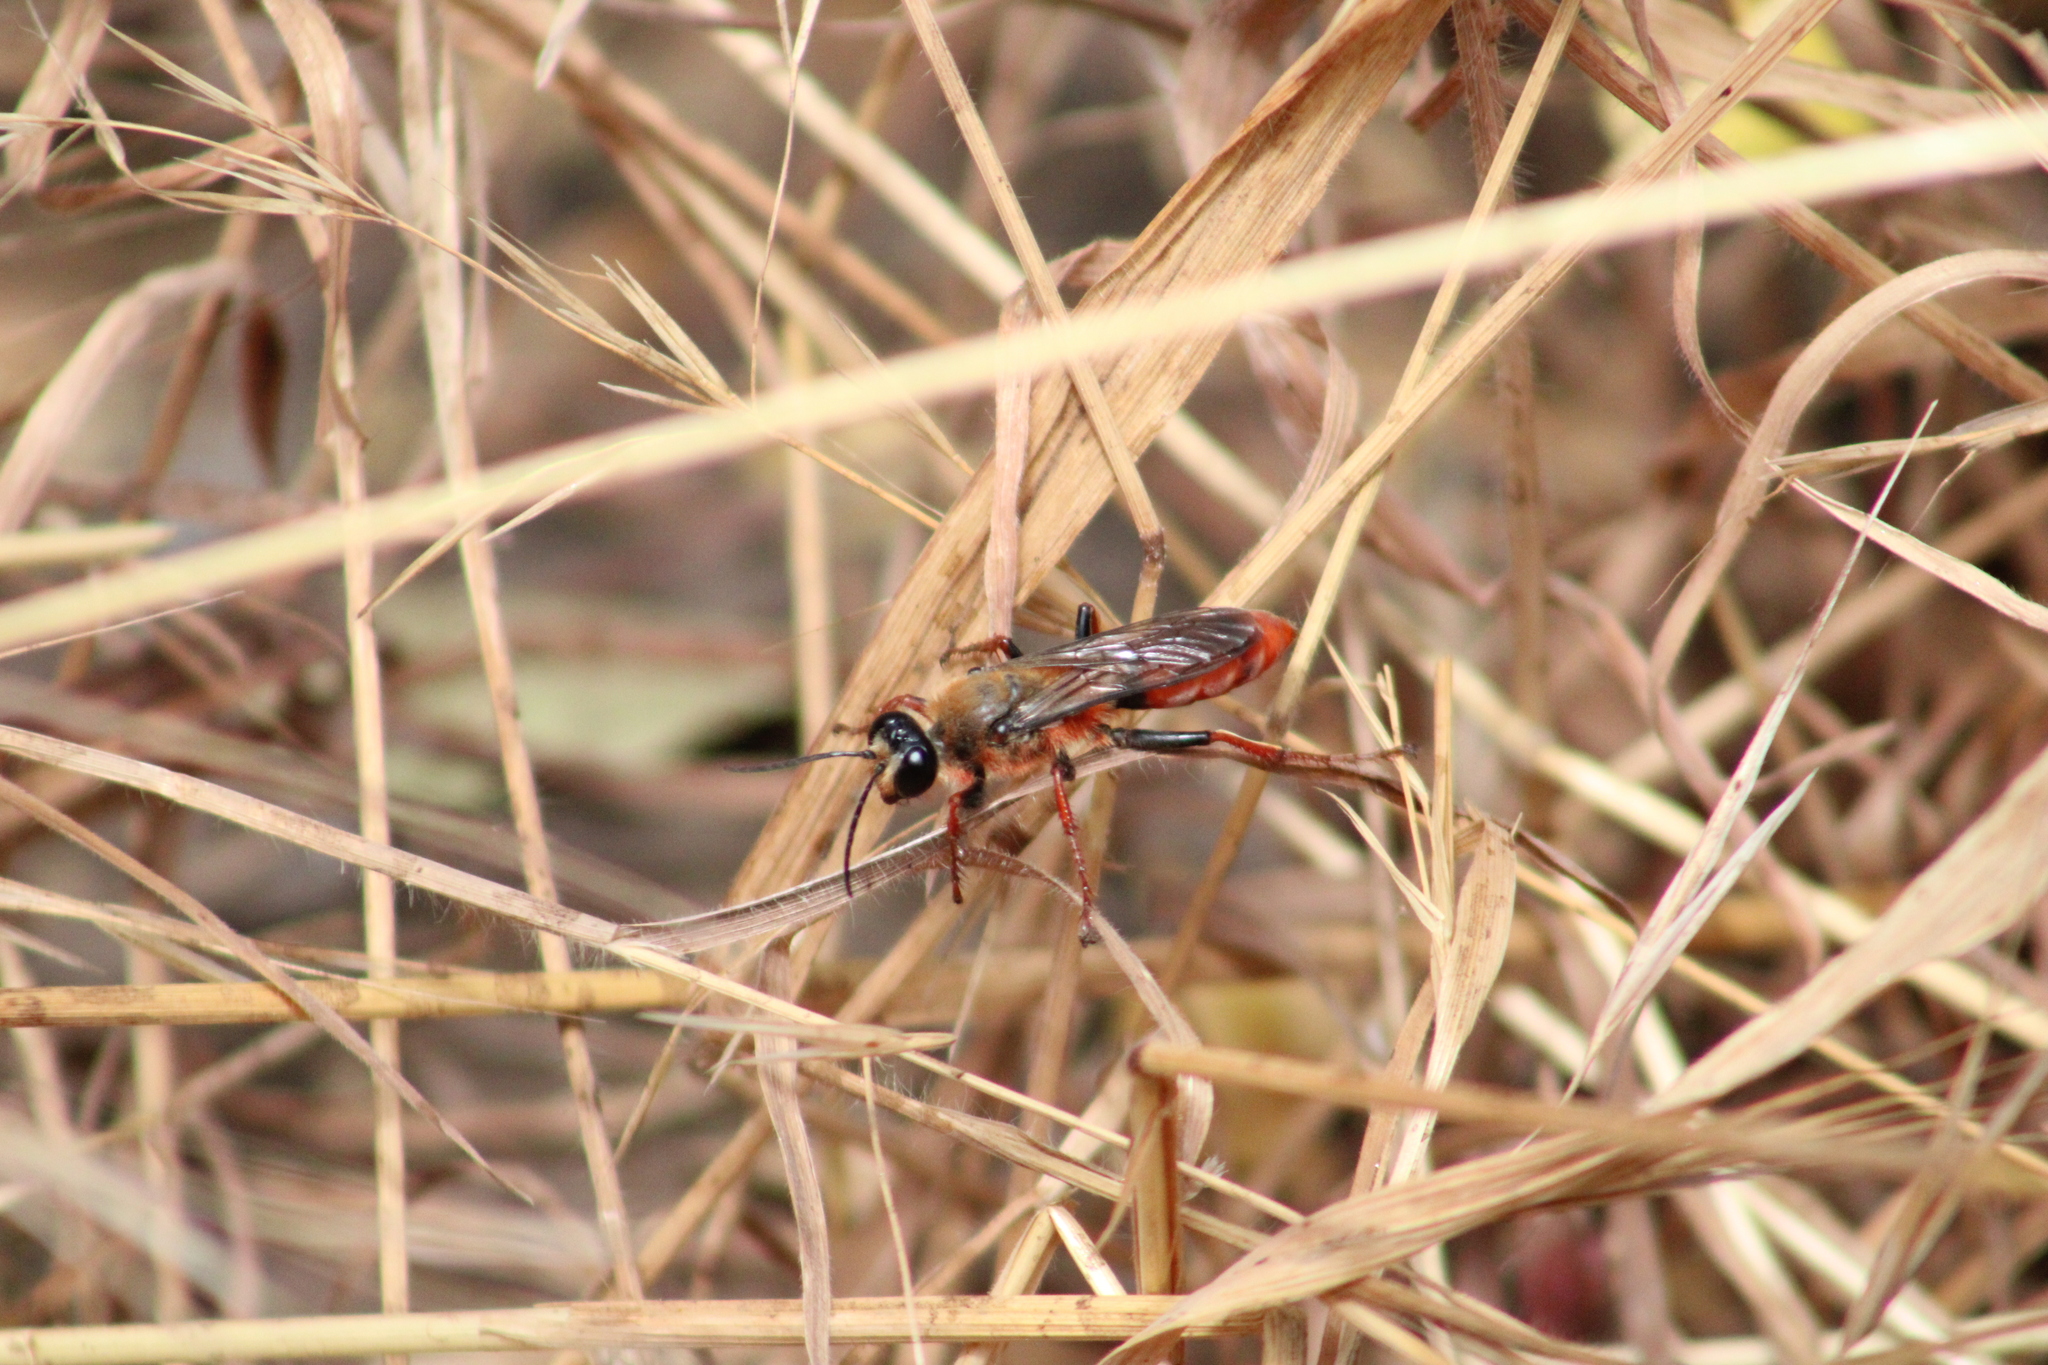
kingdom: Animalia
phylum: Arthropoda
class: Insecta
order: Hymenoptera
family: Sphecidae
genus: Sphex
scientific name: Sphex latreillei
